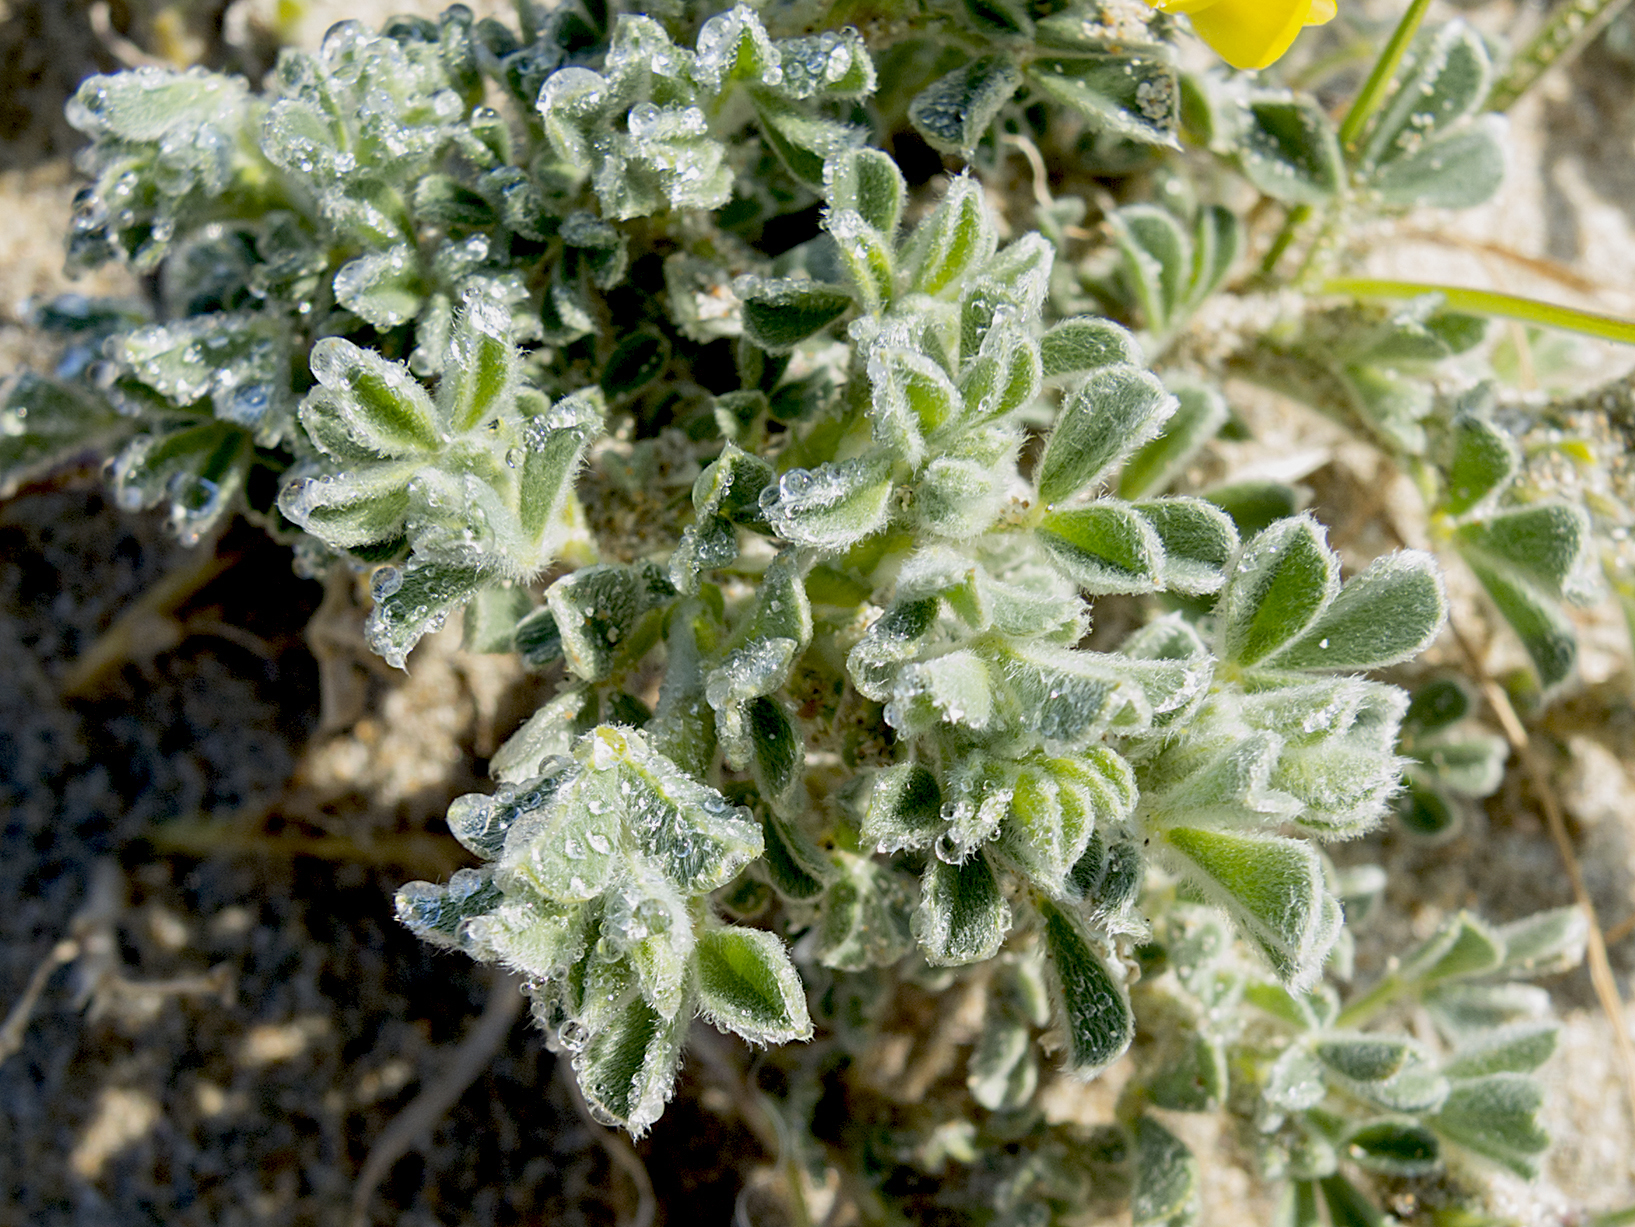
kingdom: Plantae
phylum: Tracheophyta
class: Magnoliopsida
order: Fabales
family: Fabaceae
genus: Medicago
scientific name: Medicago marina
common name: Sea medick
